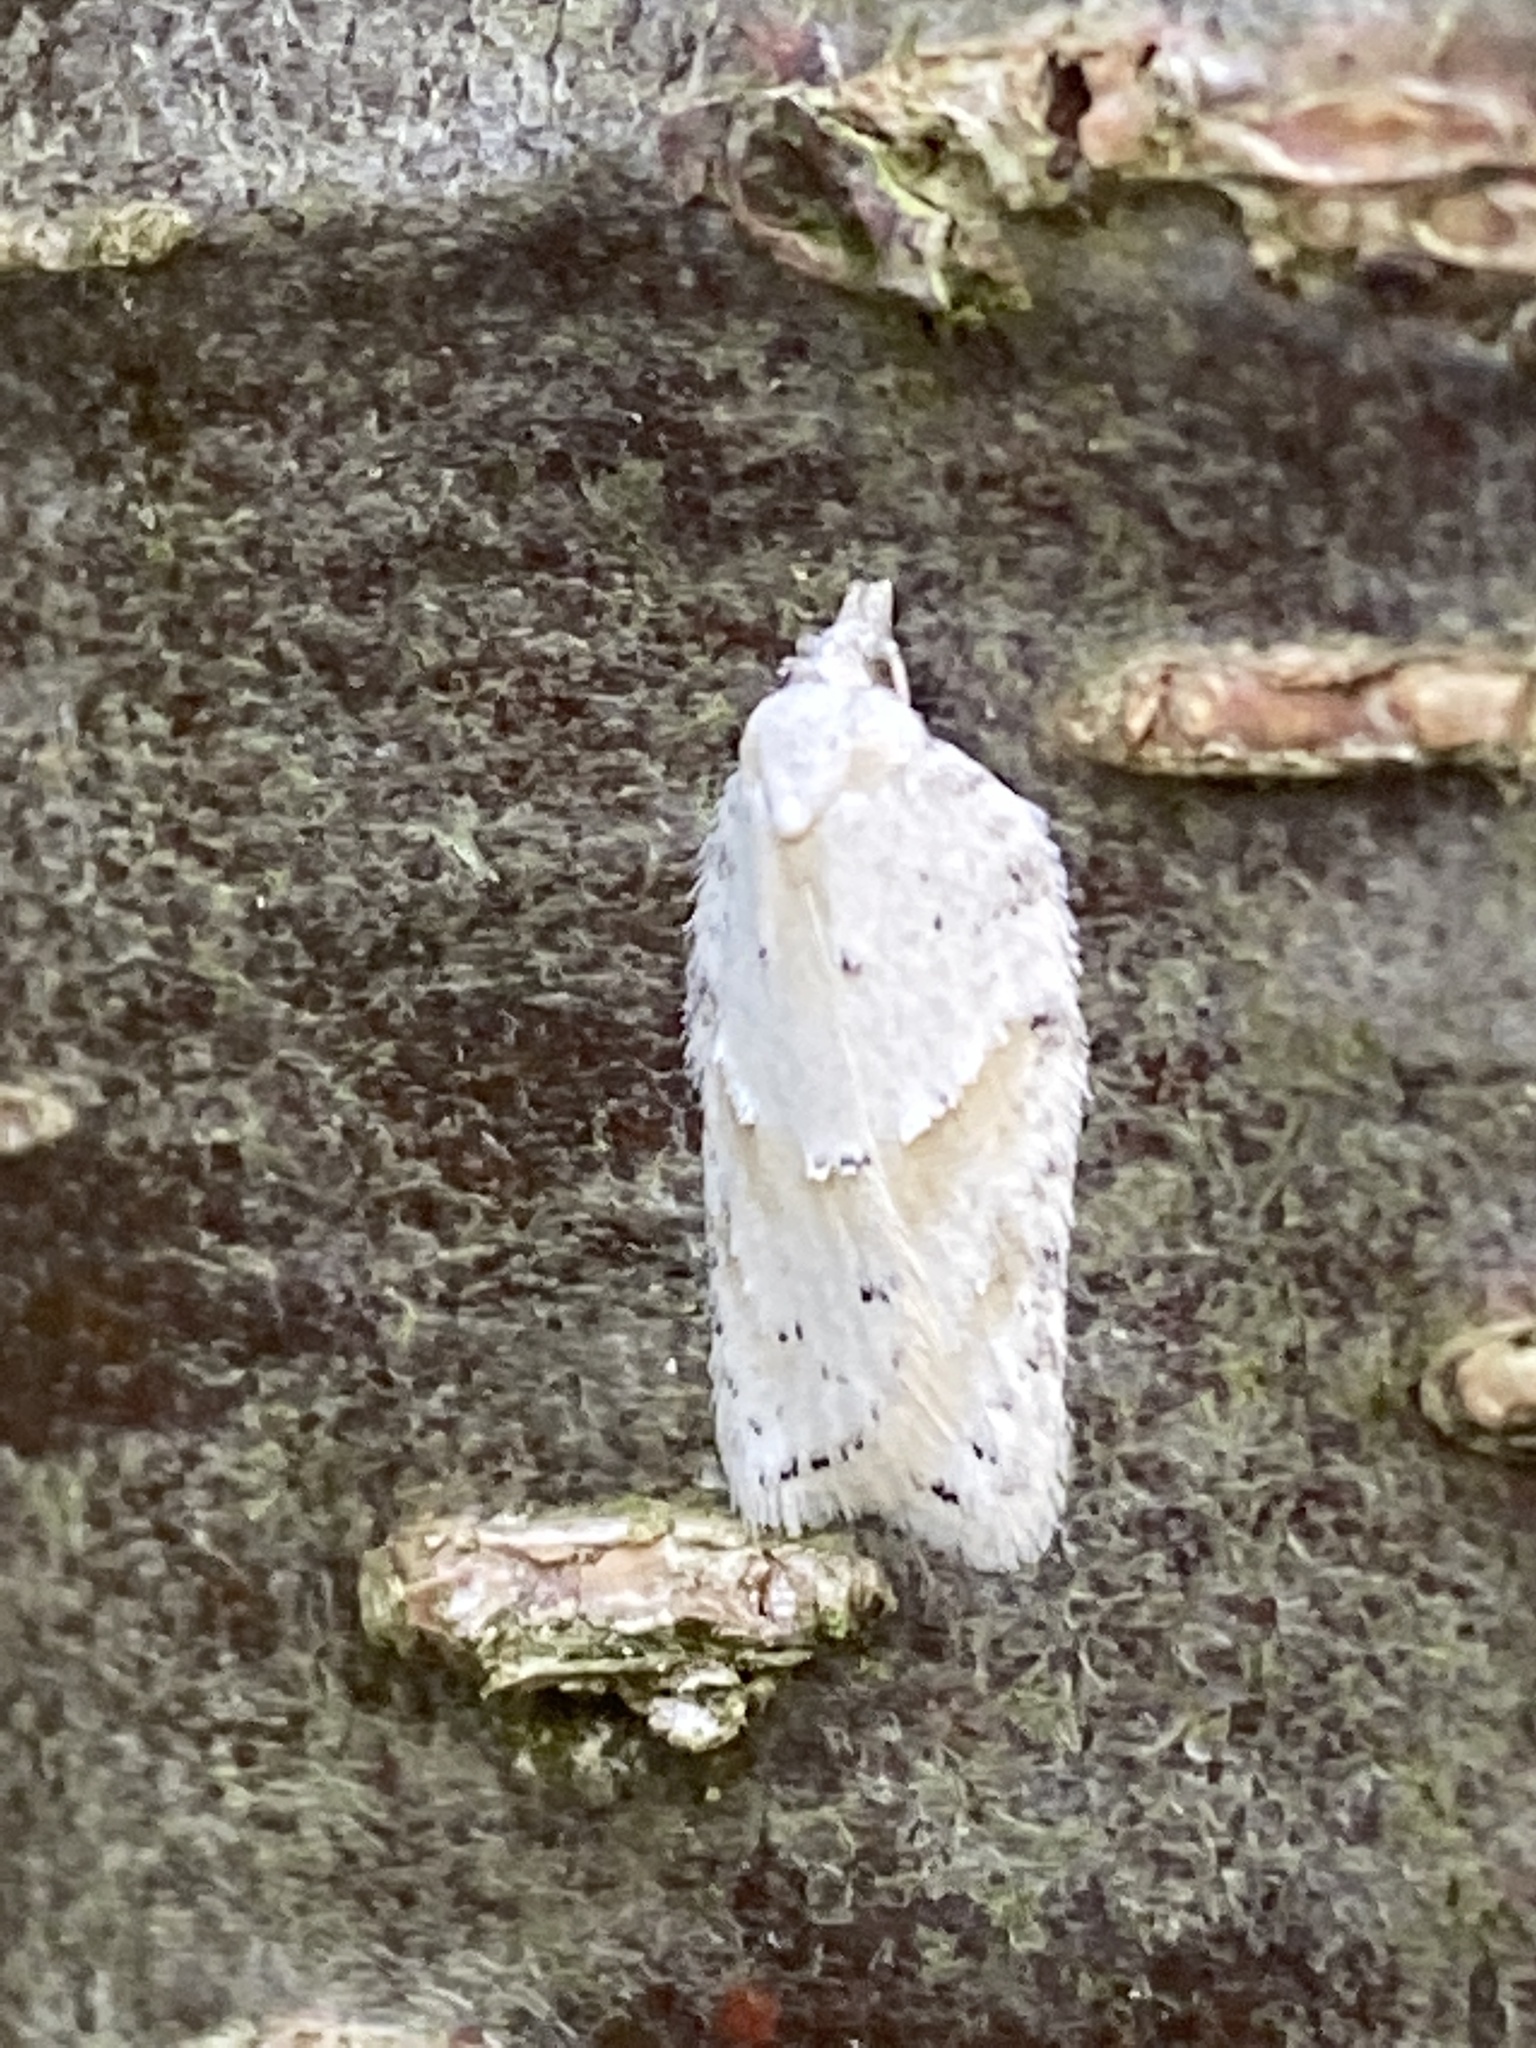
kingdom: Animalia
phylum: Arthropoda
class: Insecta
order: Lepidoptera
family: Tortricidae
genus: Acleris
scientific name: Acleris logiana
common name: Grey birch button
